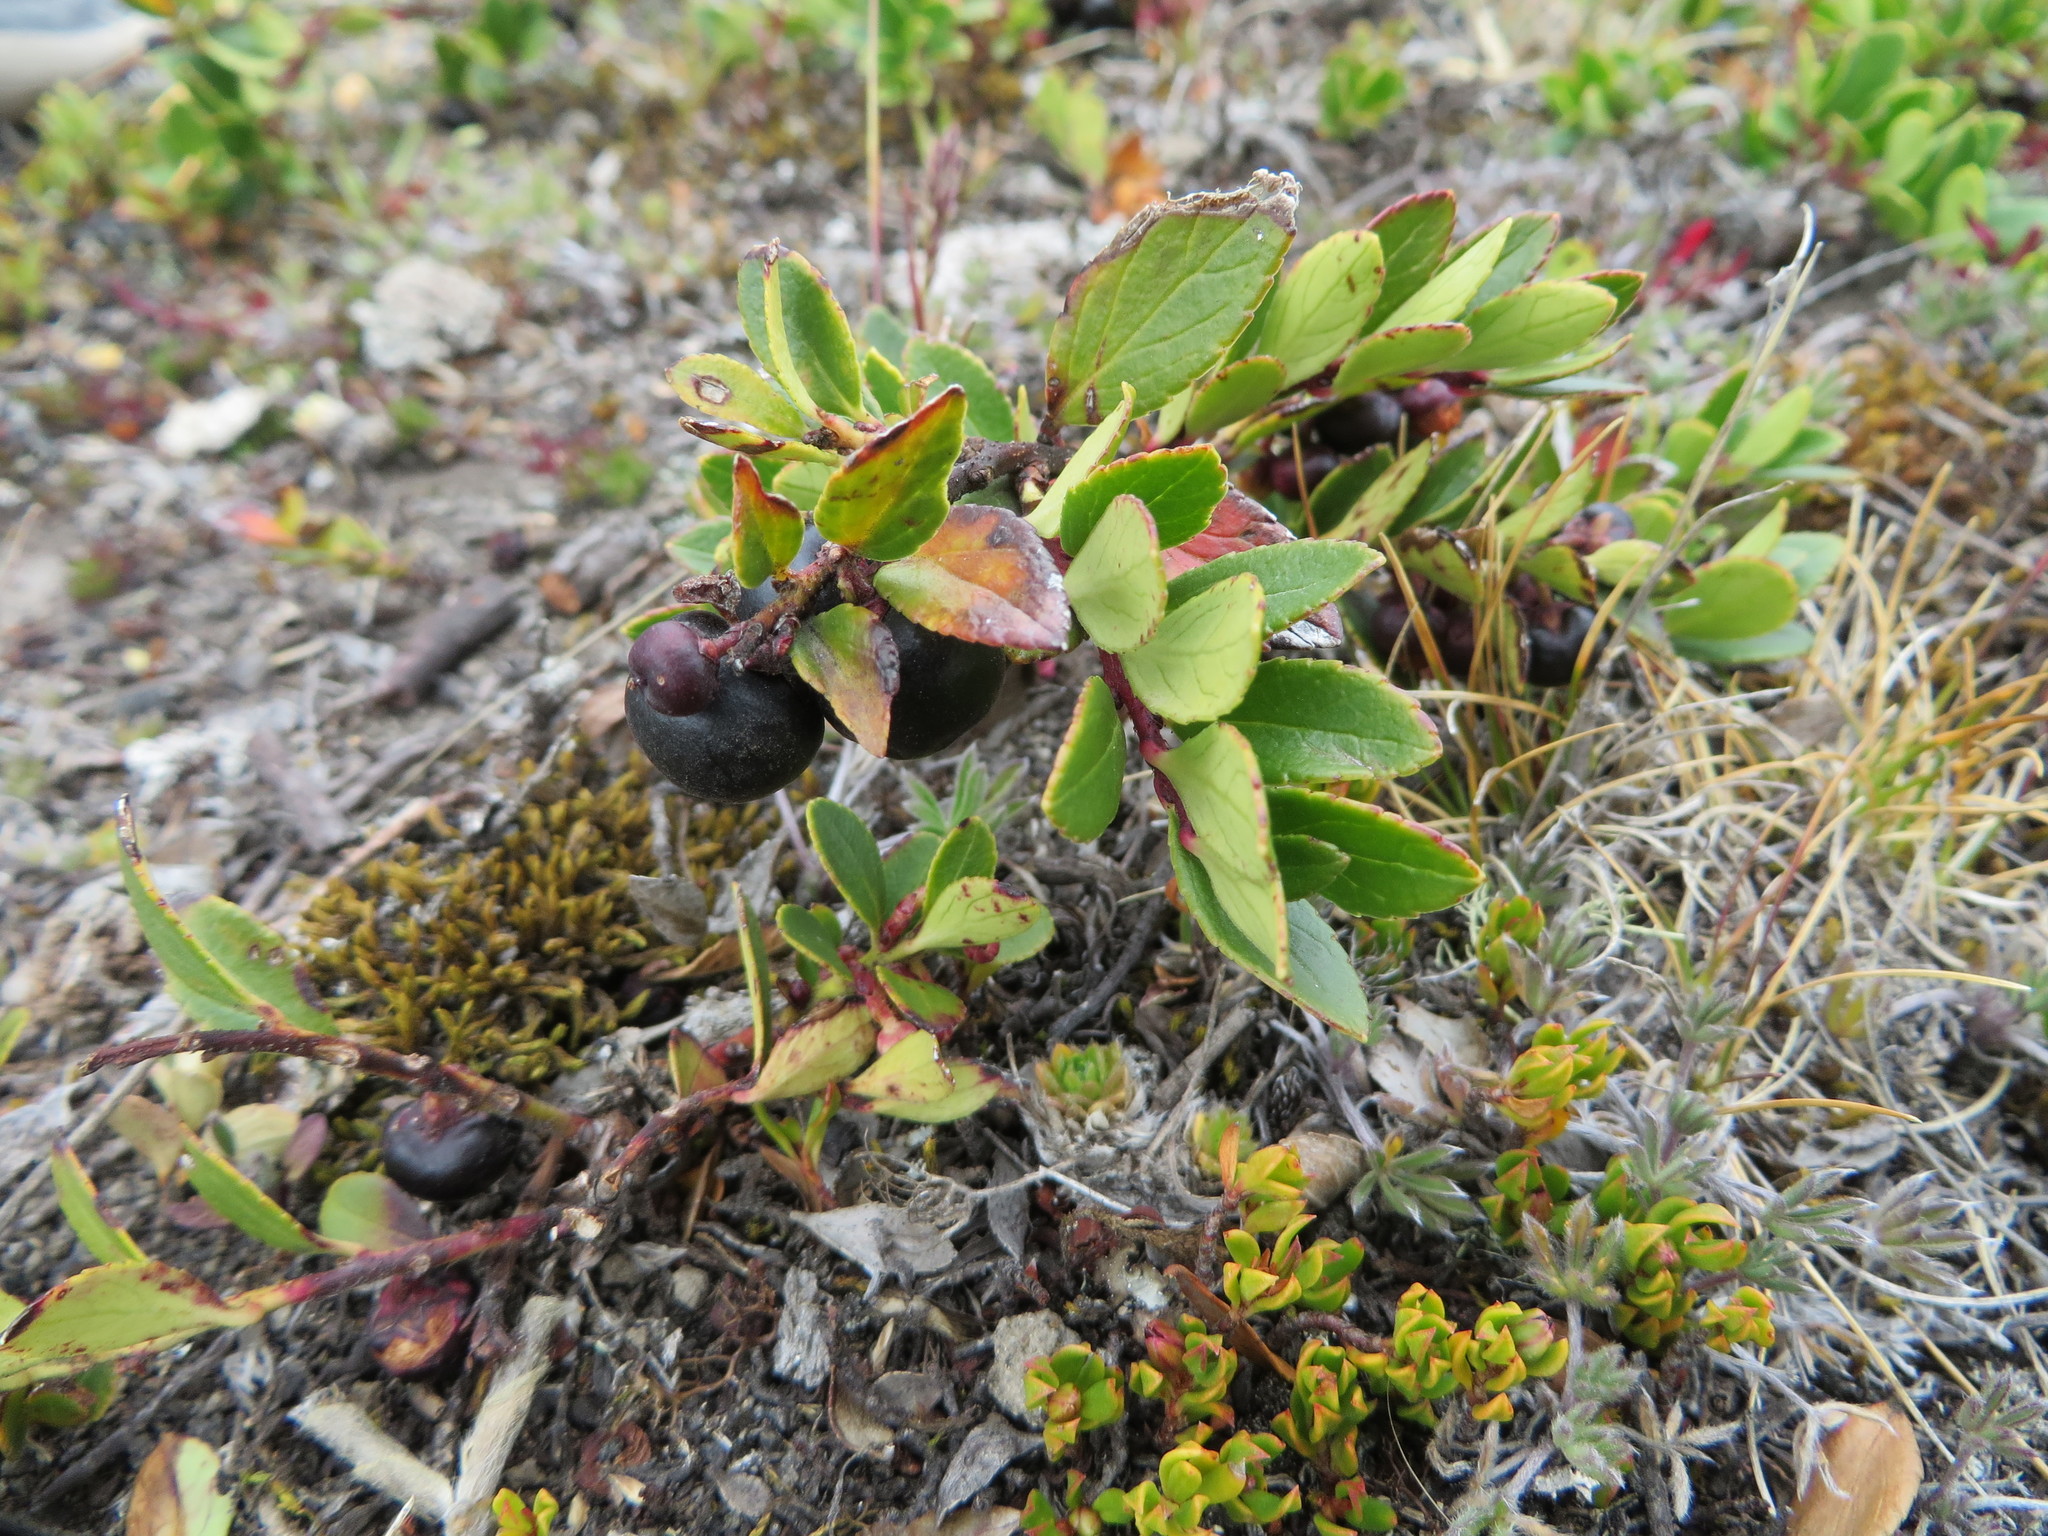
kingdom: Plantae
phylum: Tracheophyta
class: Magnoliopsida
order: Ericales
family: Ericaceae
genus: Gaultheria
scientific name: Gaultheria myrsinoides
